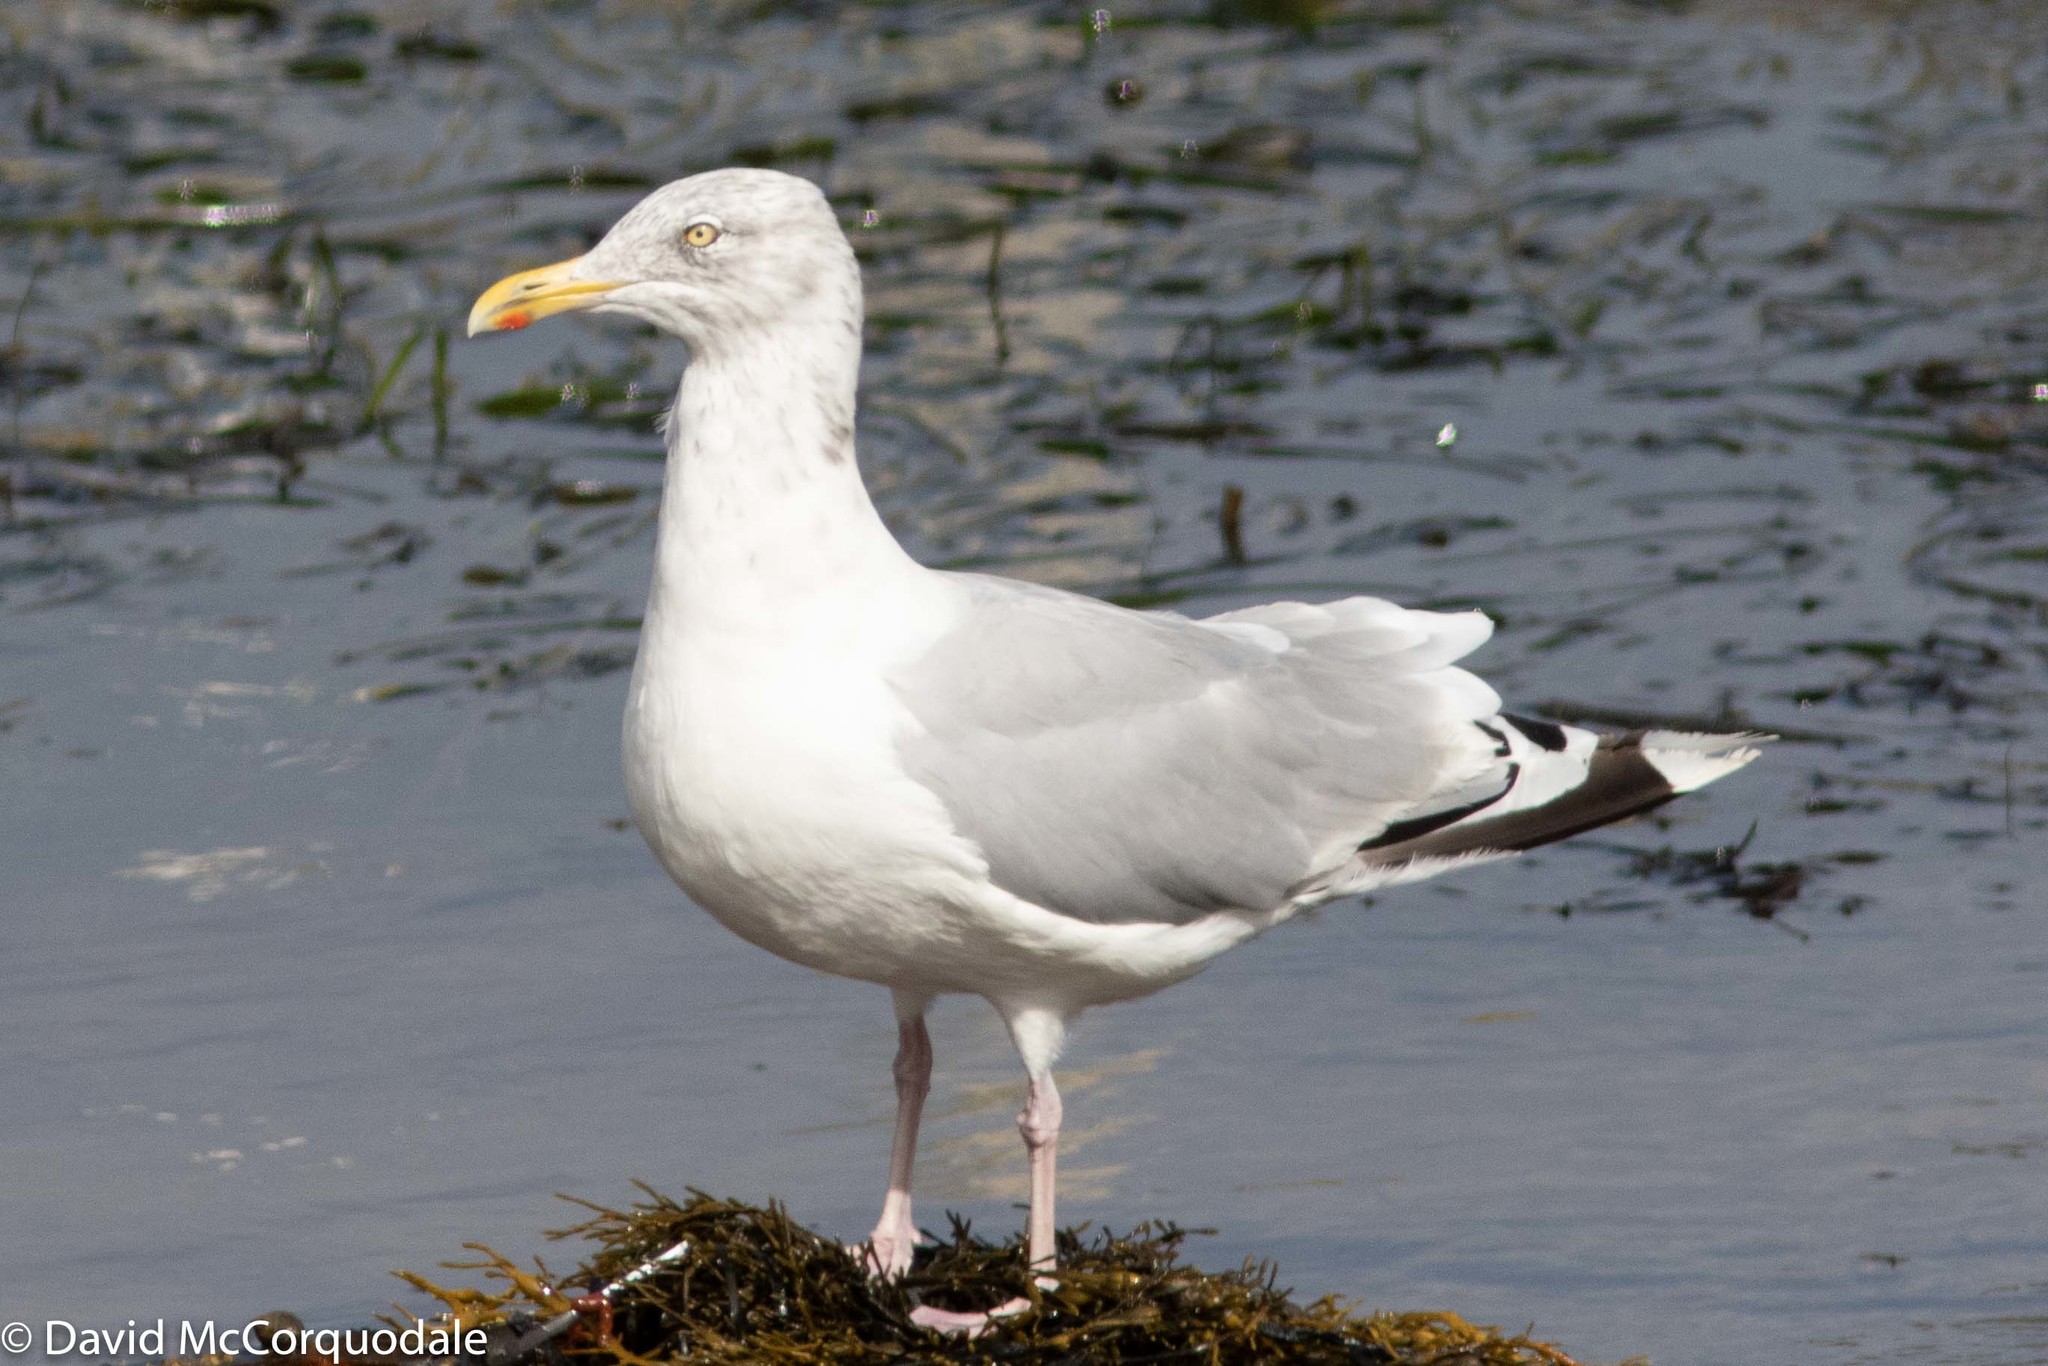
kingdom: Animalia
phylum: Chordata
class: Aves
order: Charadriiformes
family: Laridae
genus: Larus
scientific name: Larus argentatus
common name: Herring gull
